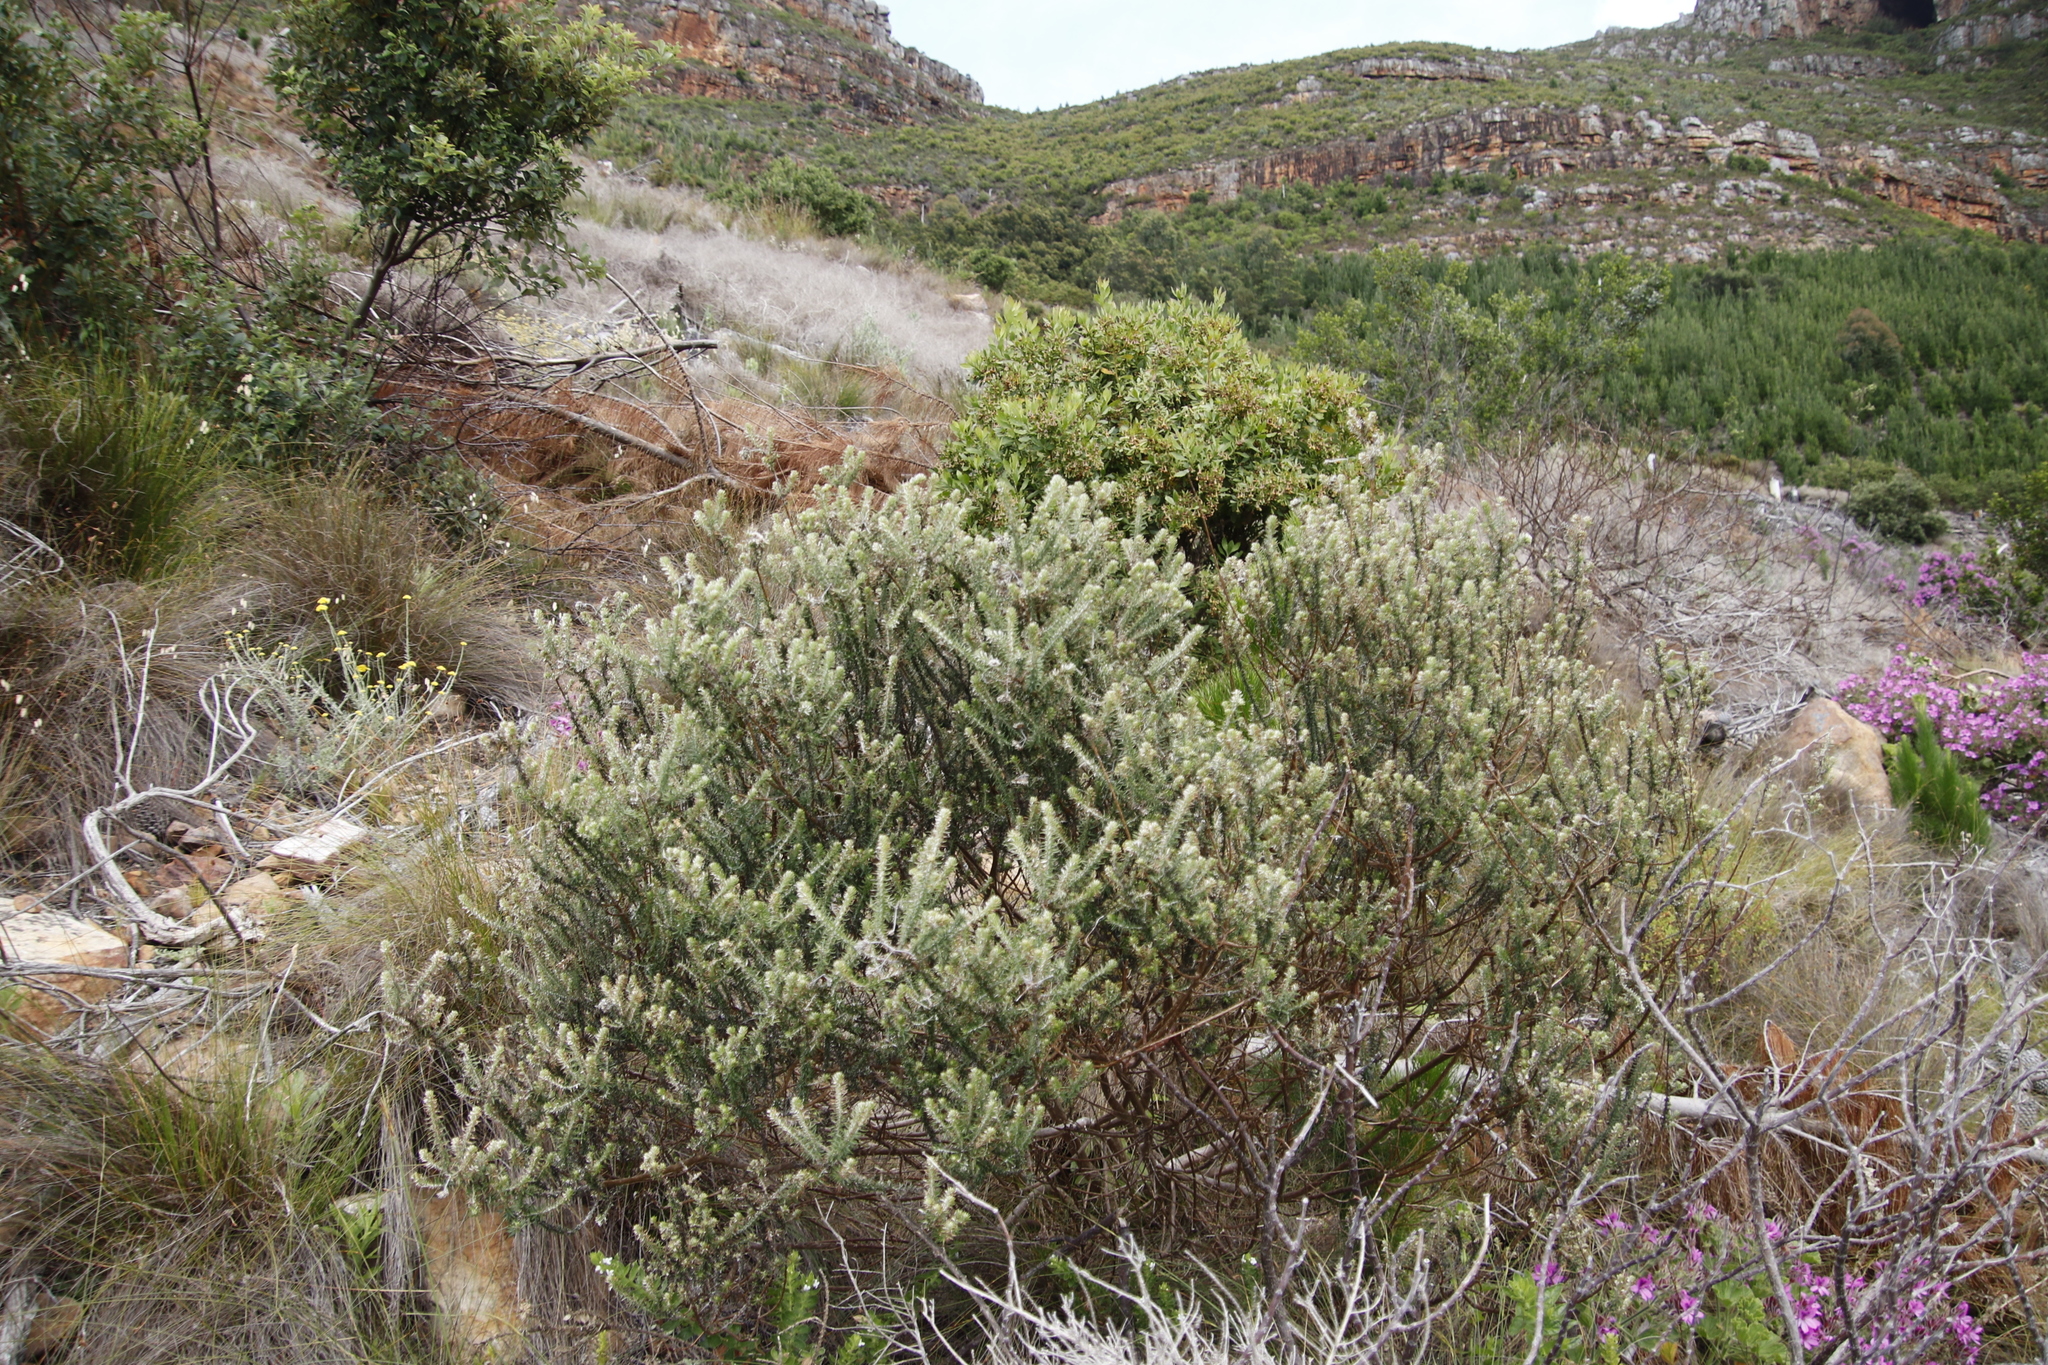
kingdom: Plantae
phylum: Tracheophyta
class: Magnoliopsida
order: Asterales
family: Asteraceae
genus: Metalasia
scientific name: Metalasia densa
